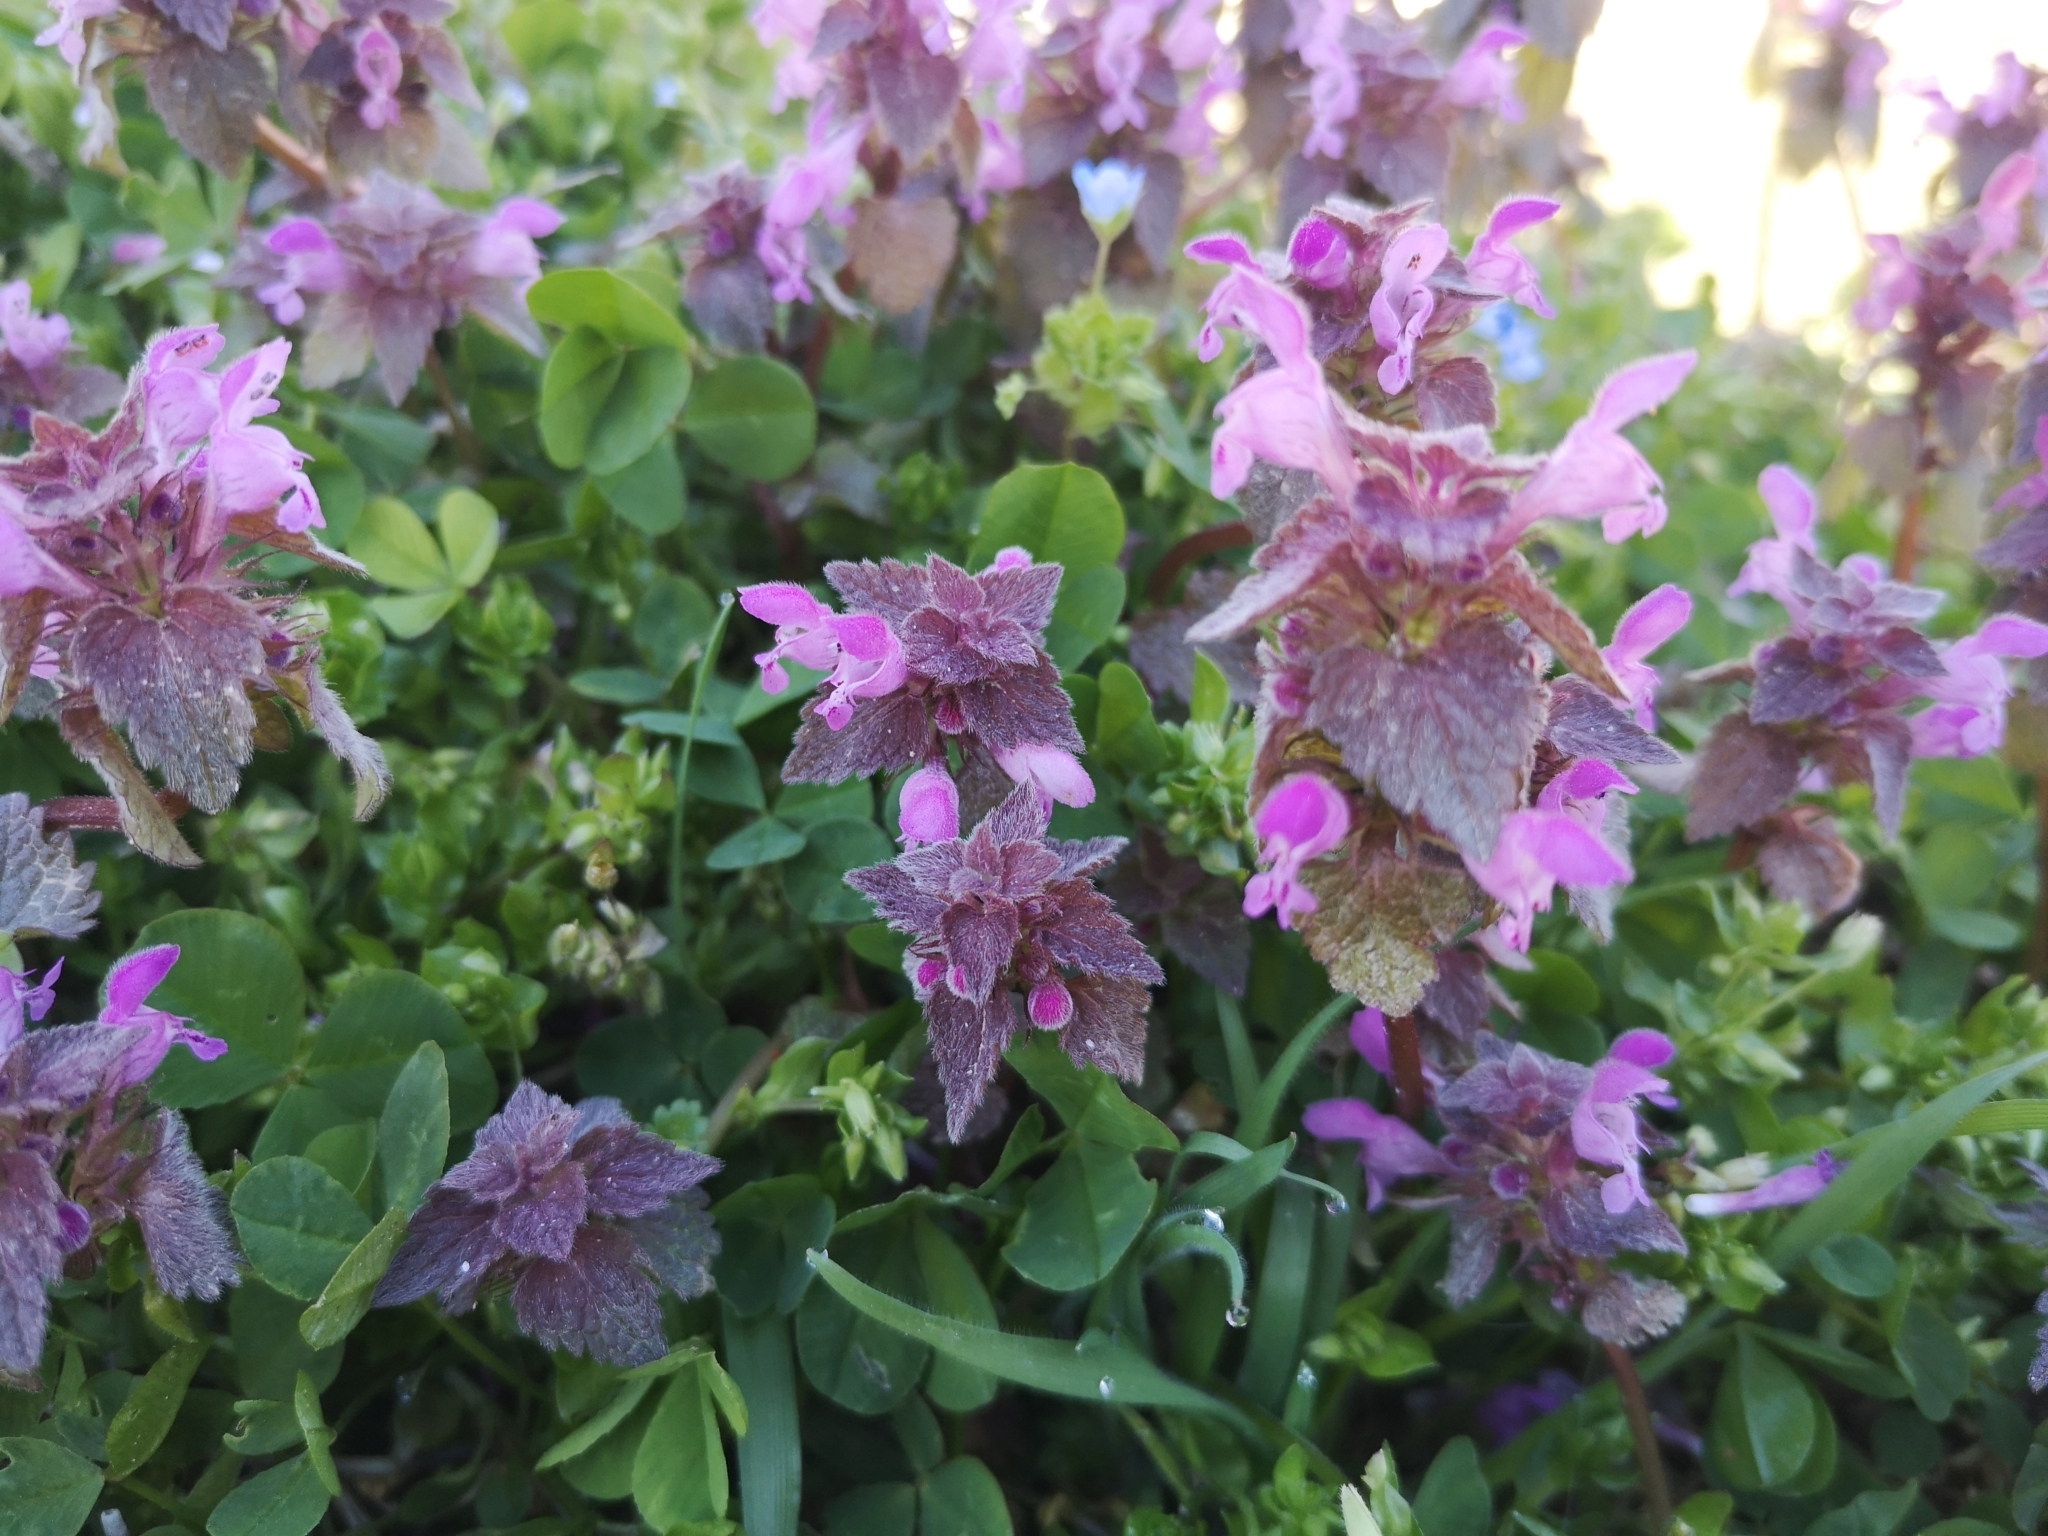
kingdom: Plantae
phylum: Tracheophyta
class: Magnoliopsida
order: Lamiales
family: Lamiaceae
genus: Lamium
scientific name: Lamium purpureum
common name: Red dead-nettle
